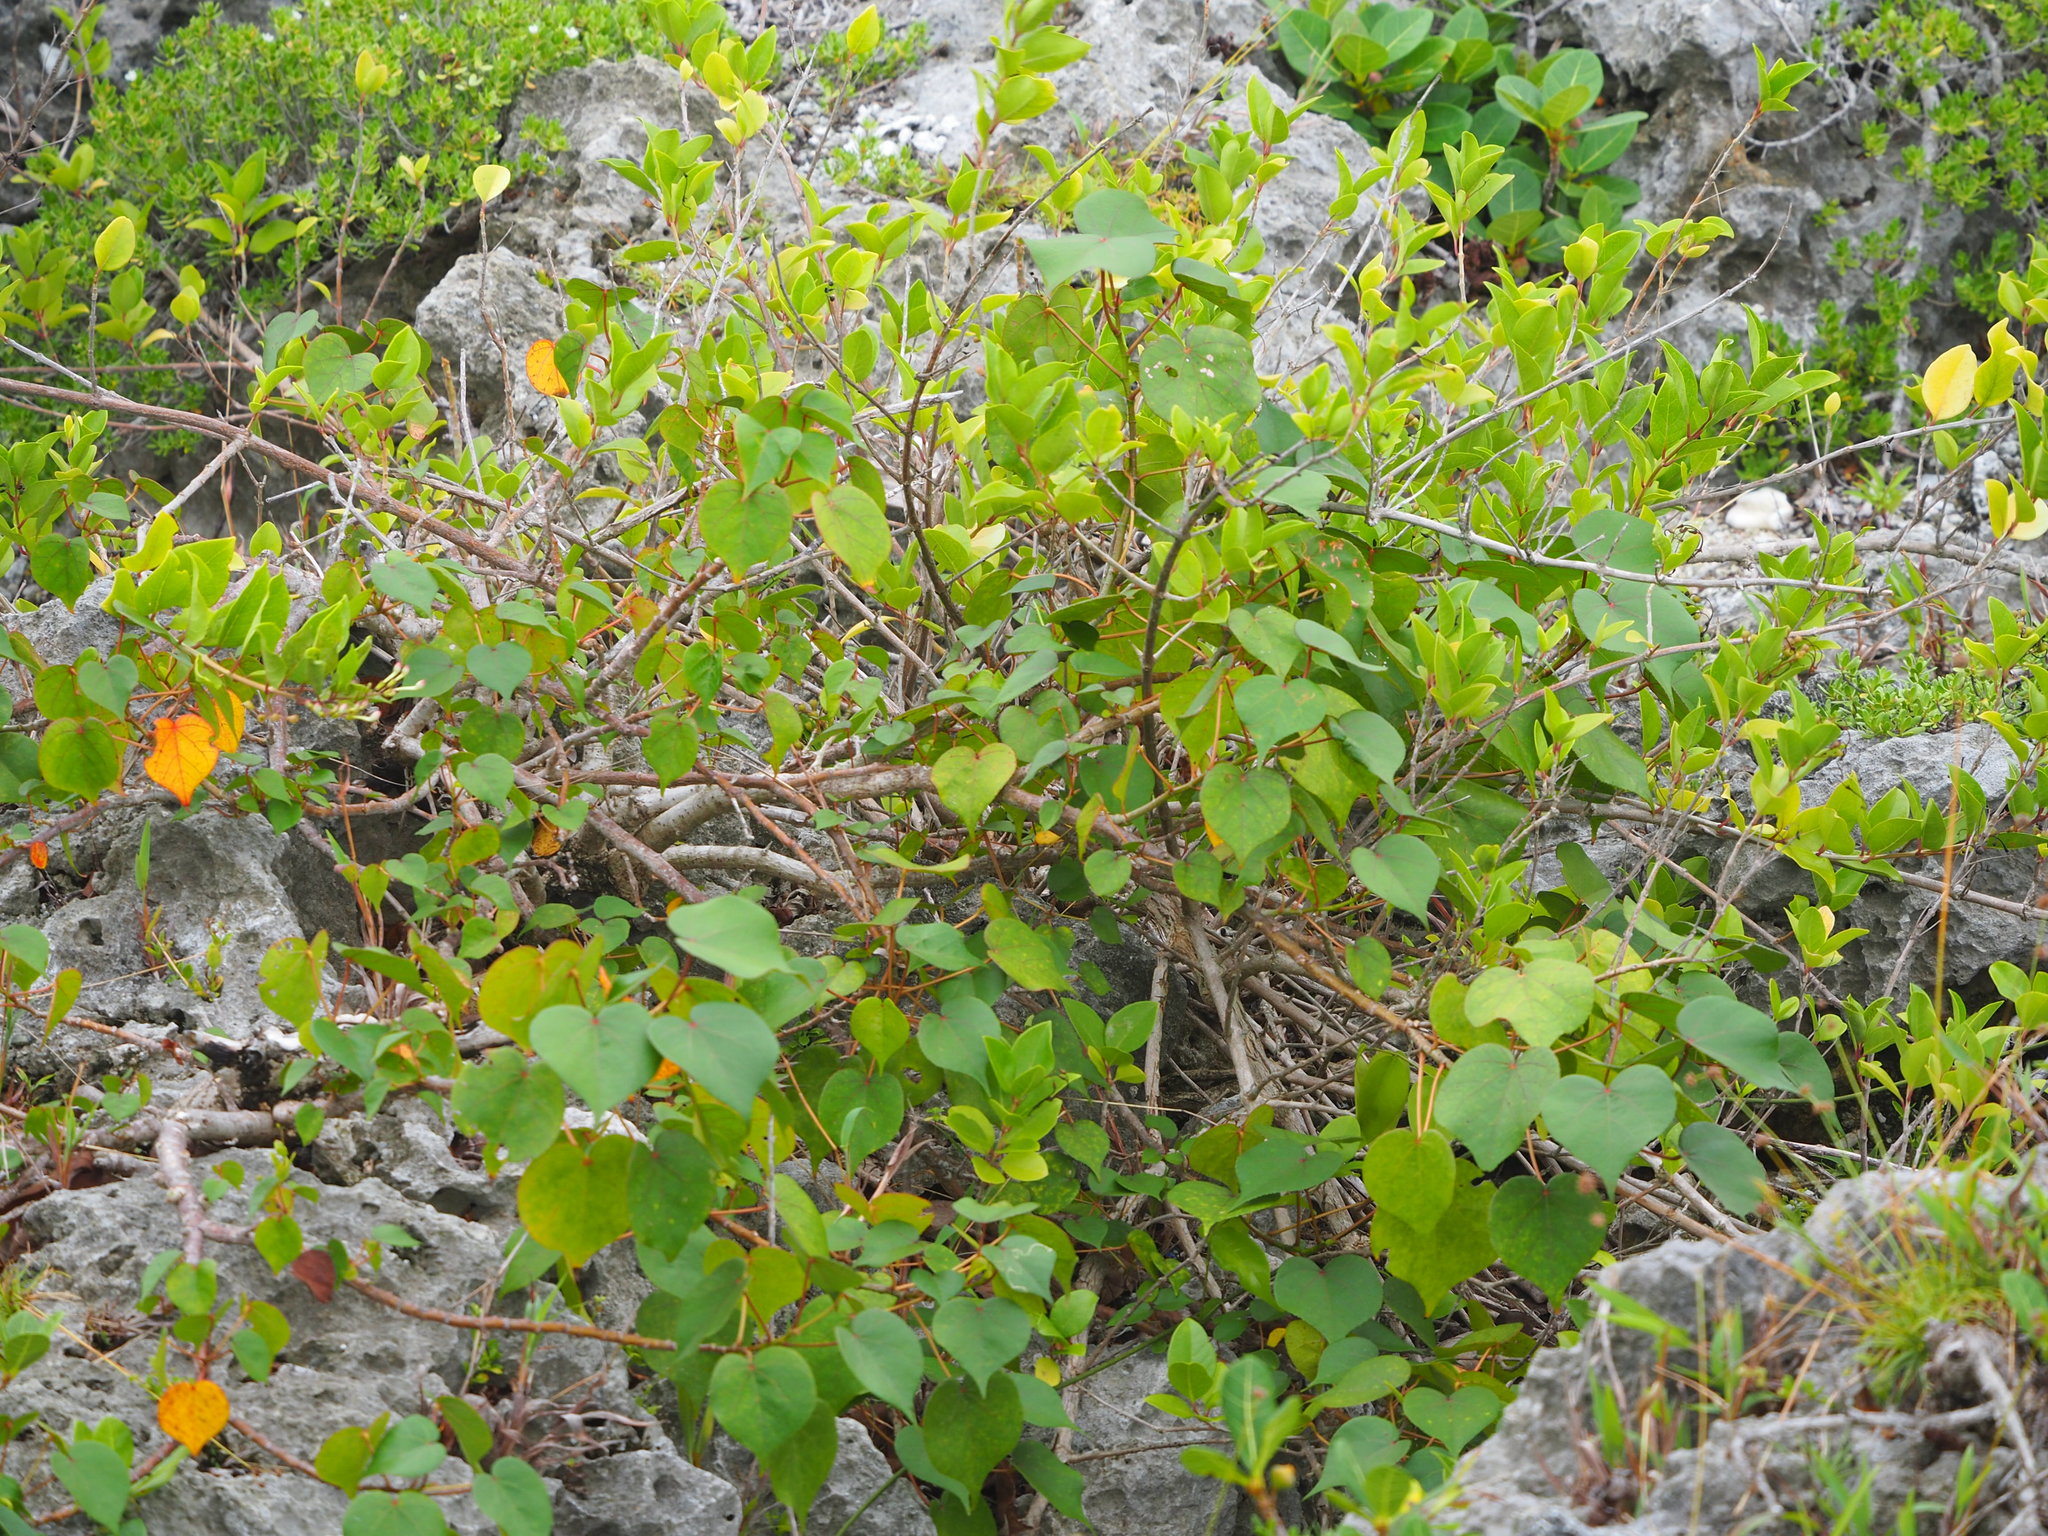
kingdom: Plantae
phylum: Tracheophyta
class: Magnoliopsida
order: Malvales
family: Malvaceae
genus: Talipariti
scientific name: Talipariti tiliaceum
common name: Sea hibiscus
